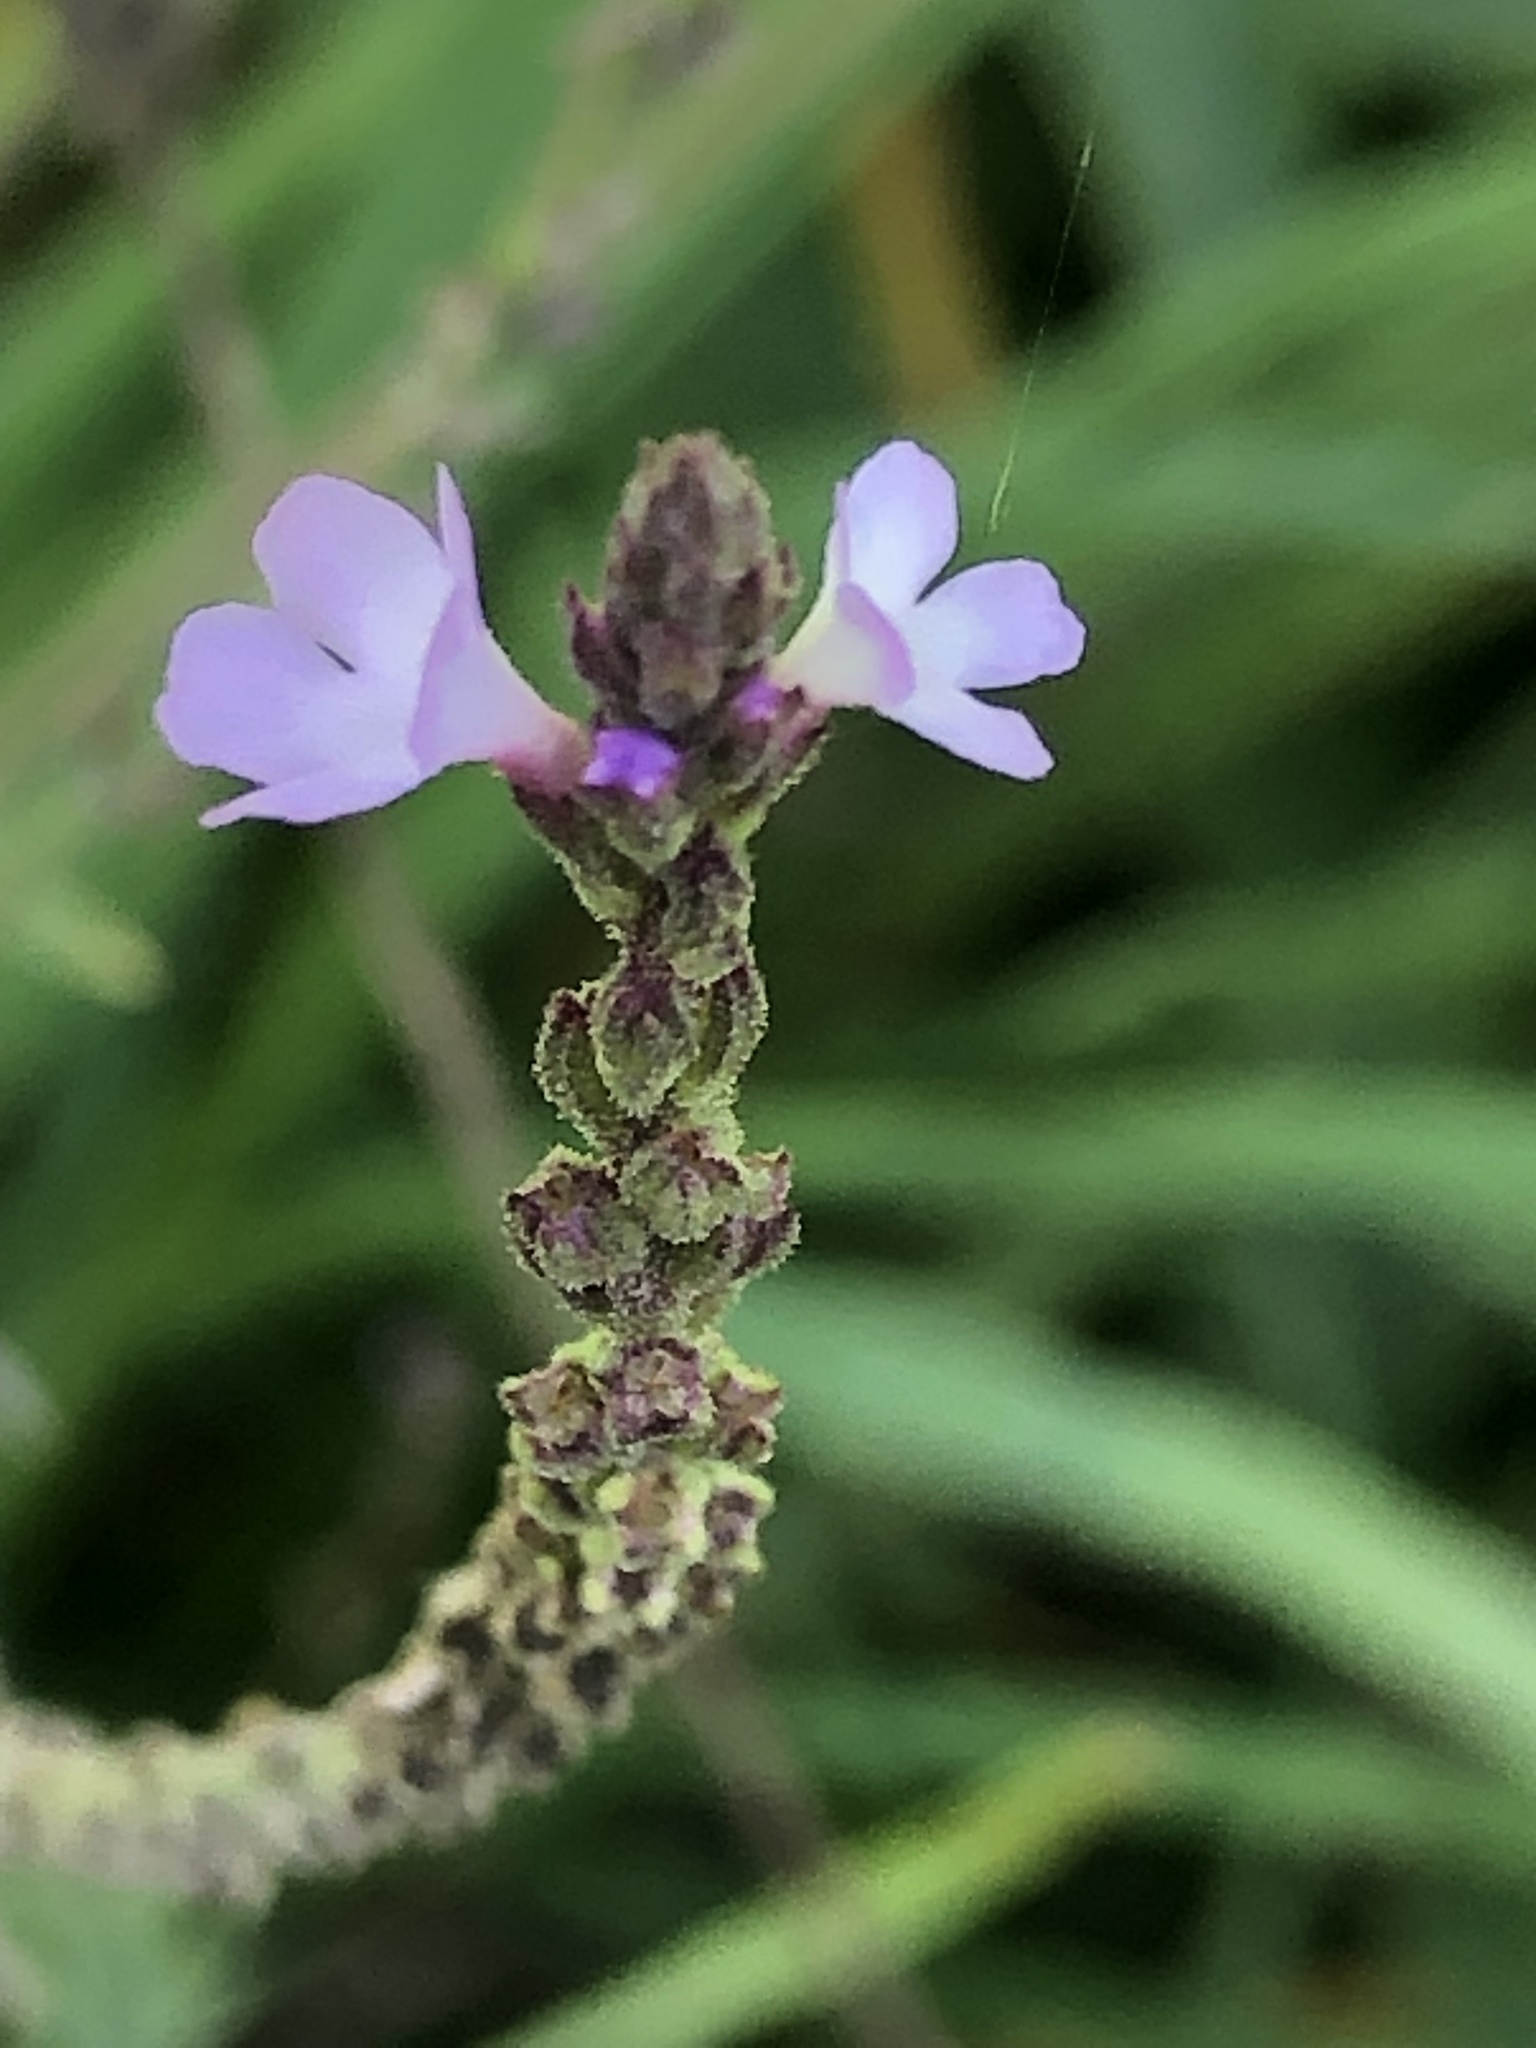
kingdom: Plantae
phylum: Tracheophyta
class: Magnoliopsida
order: Lamiales
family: Verbenaceae
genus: Verbena
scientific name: Verbena officinalis
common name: Vervain
